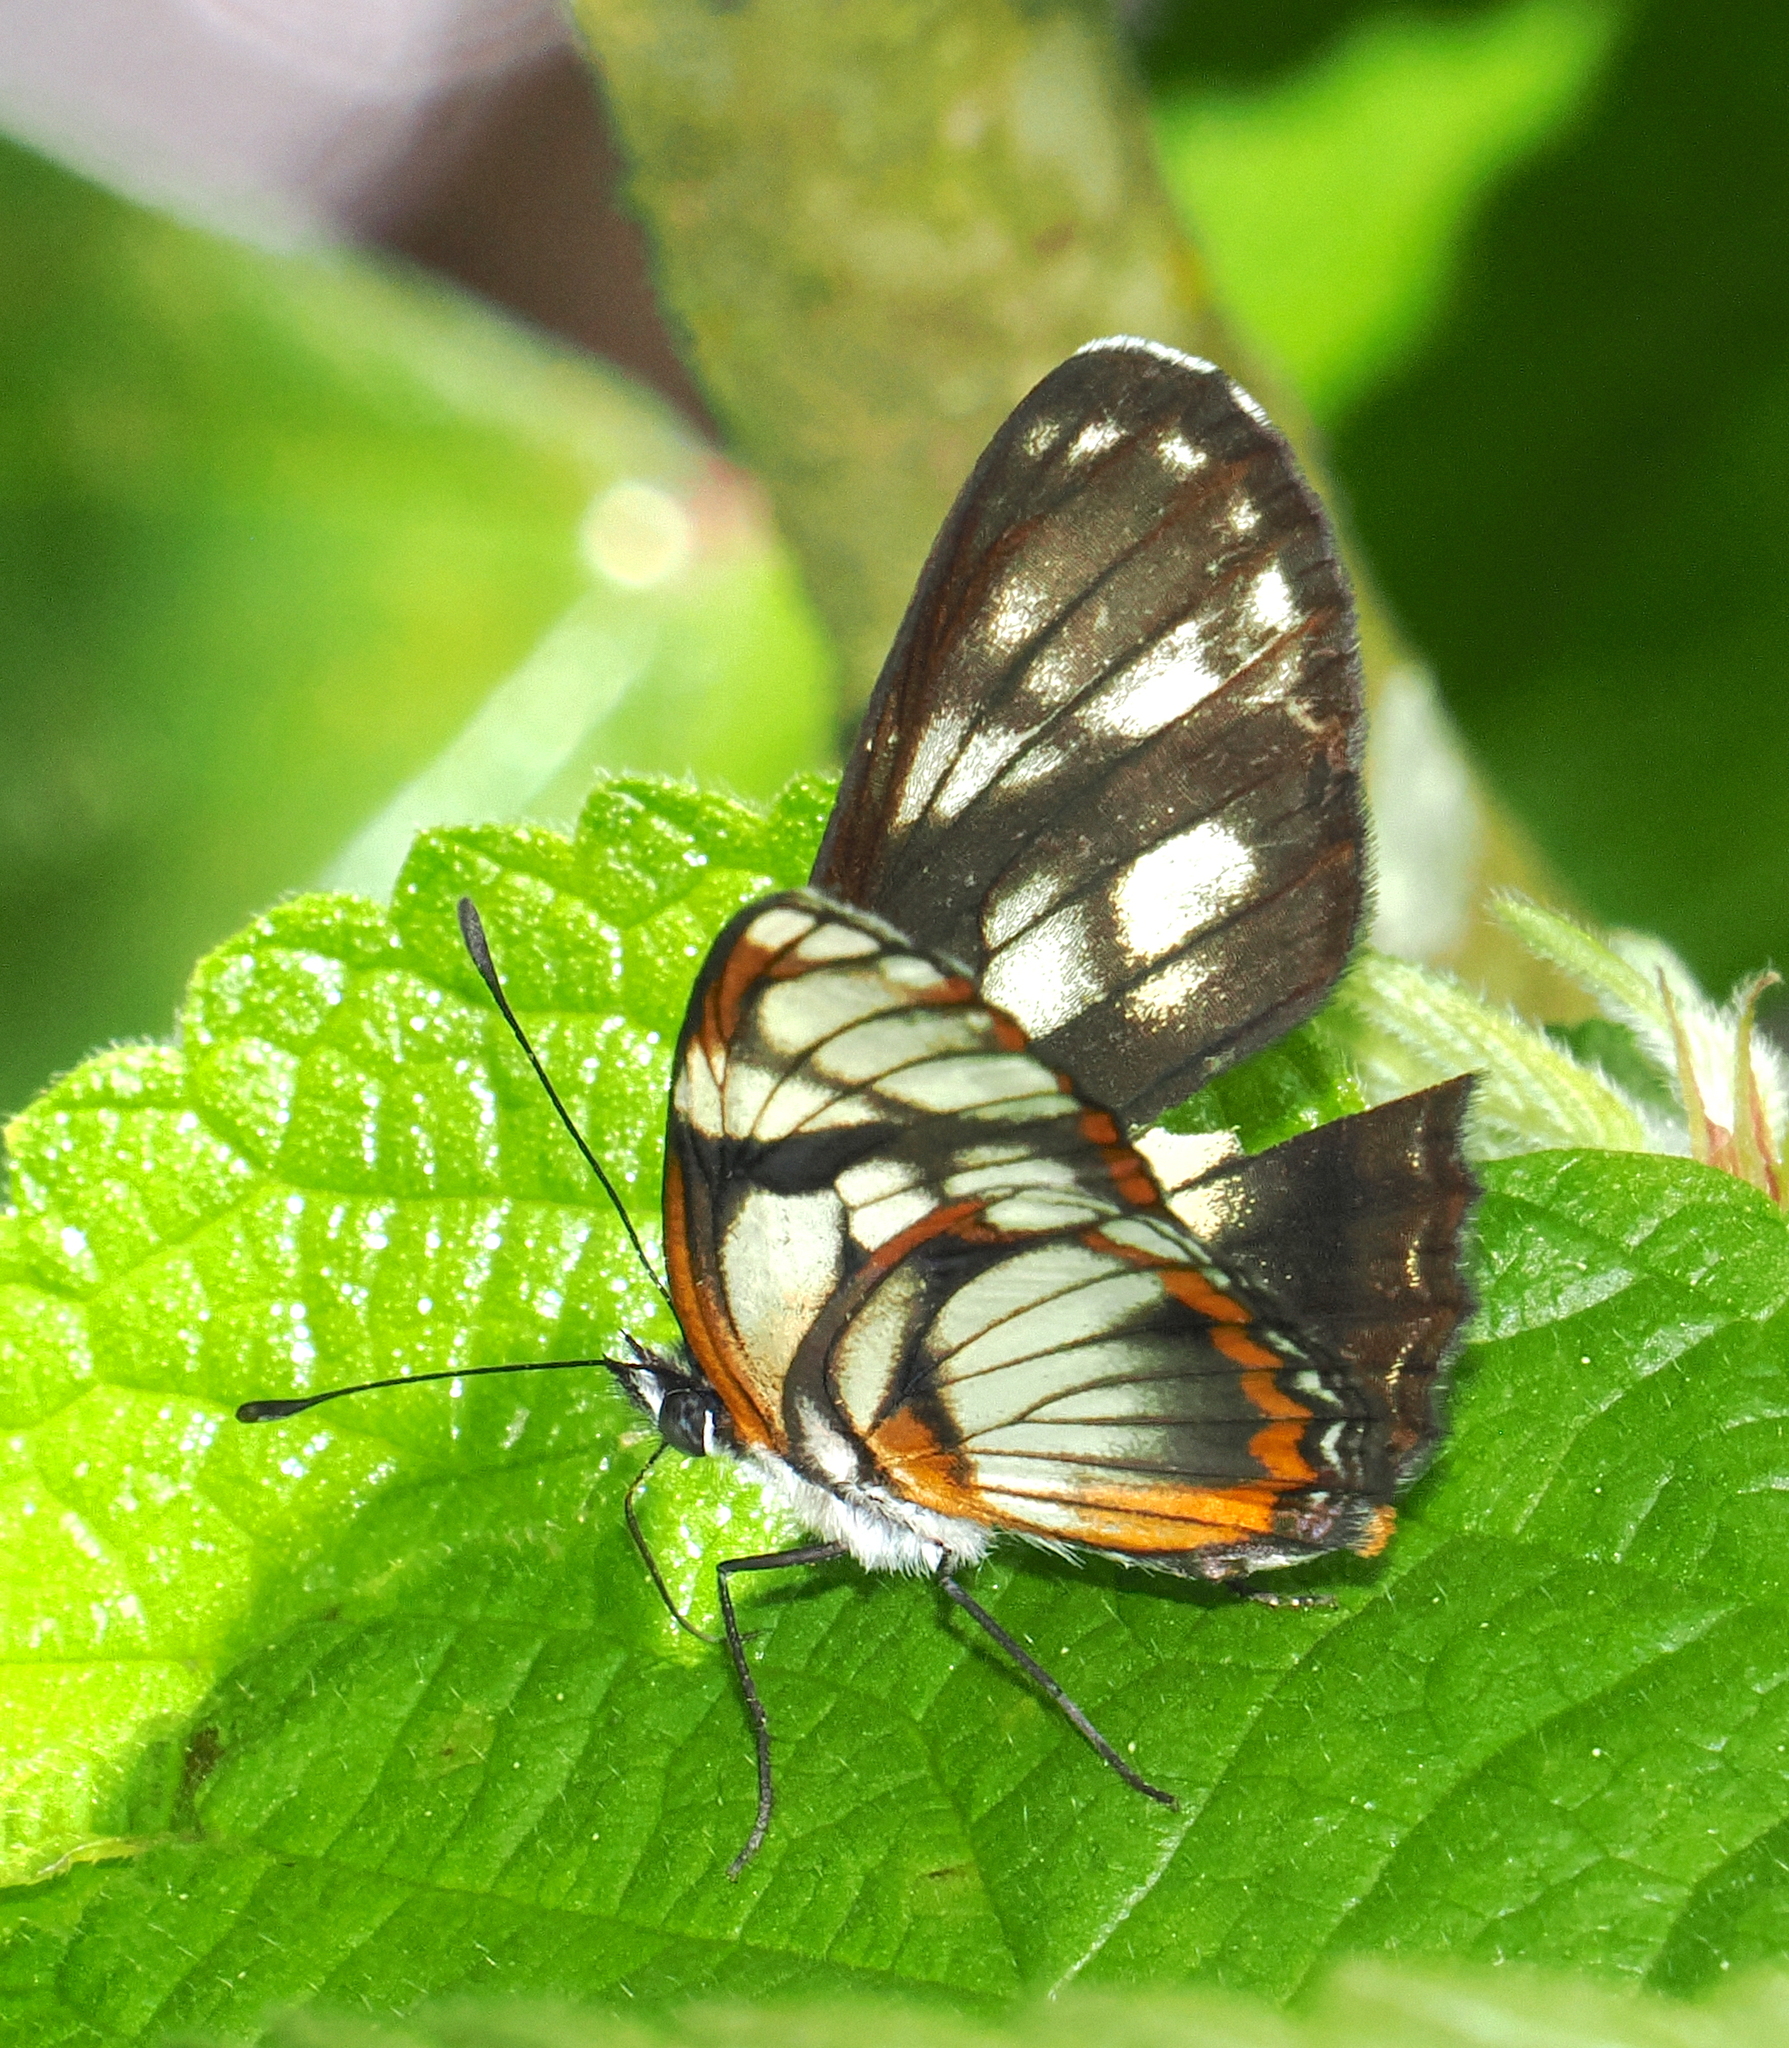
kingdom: Animalia
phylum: Arthropoda
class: Insecta
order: Lepidoptera
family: Nymphalidae
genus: Eresia
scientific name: Eresia letitia
